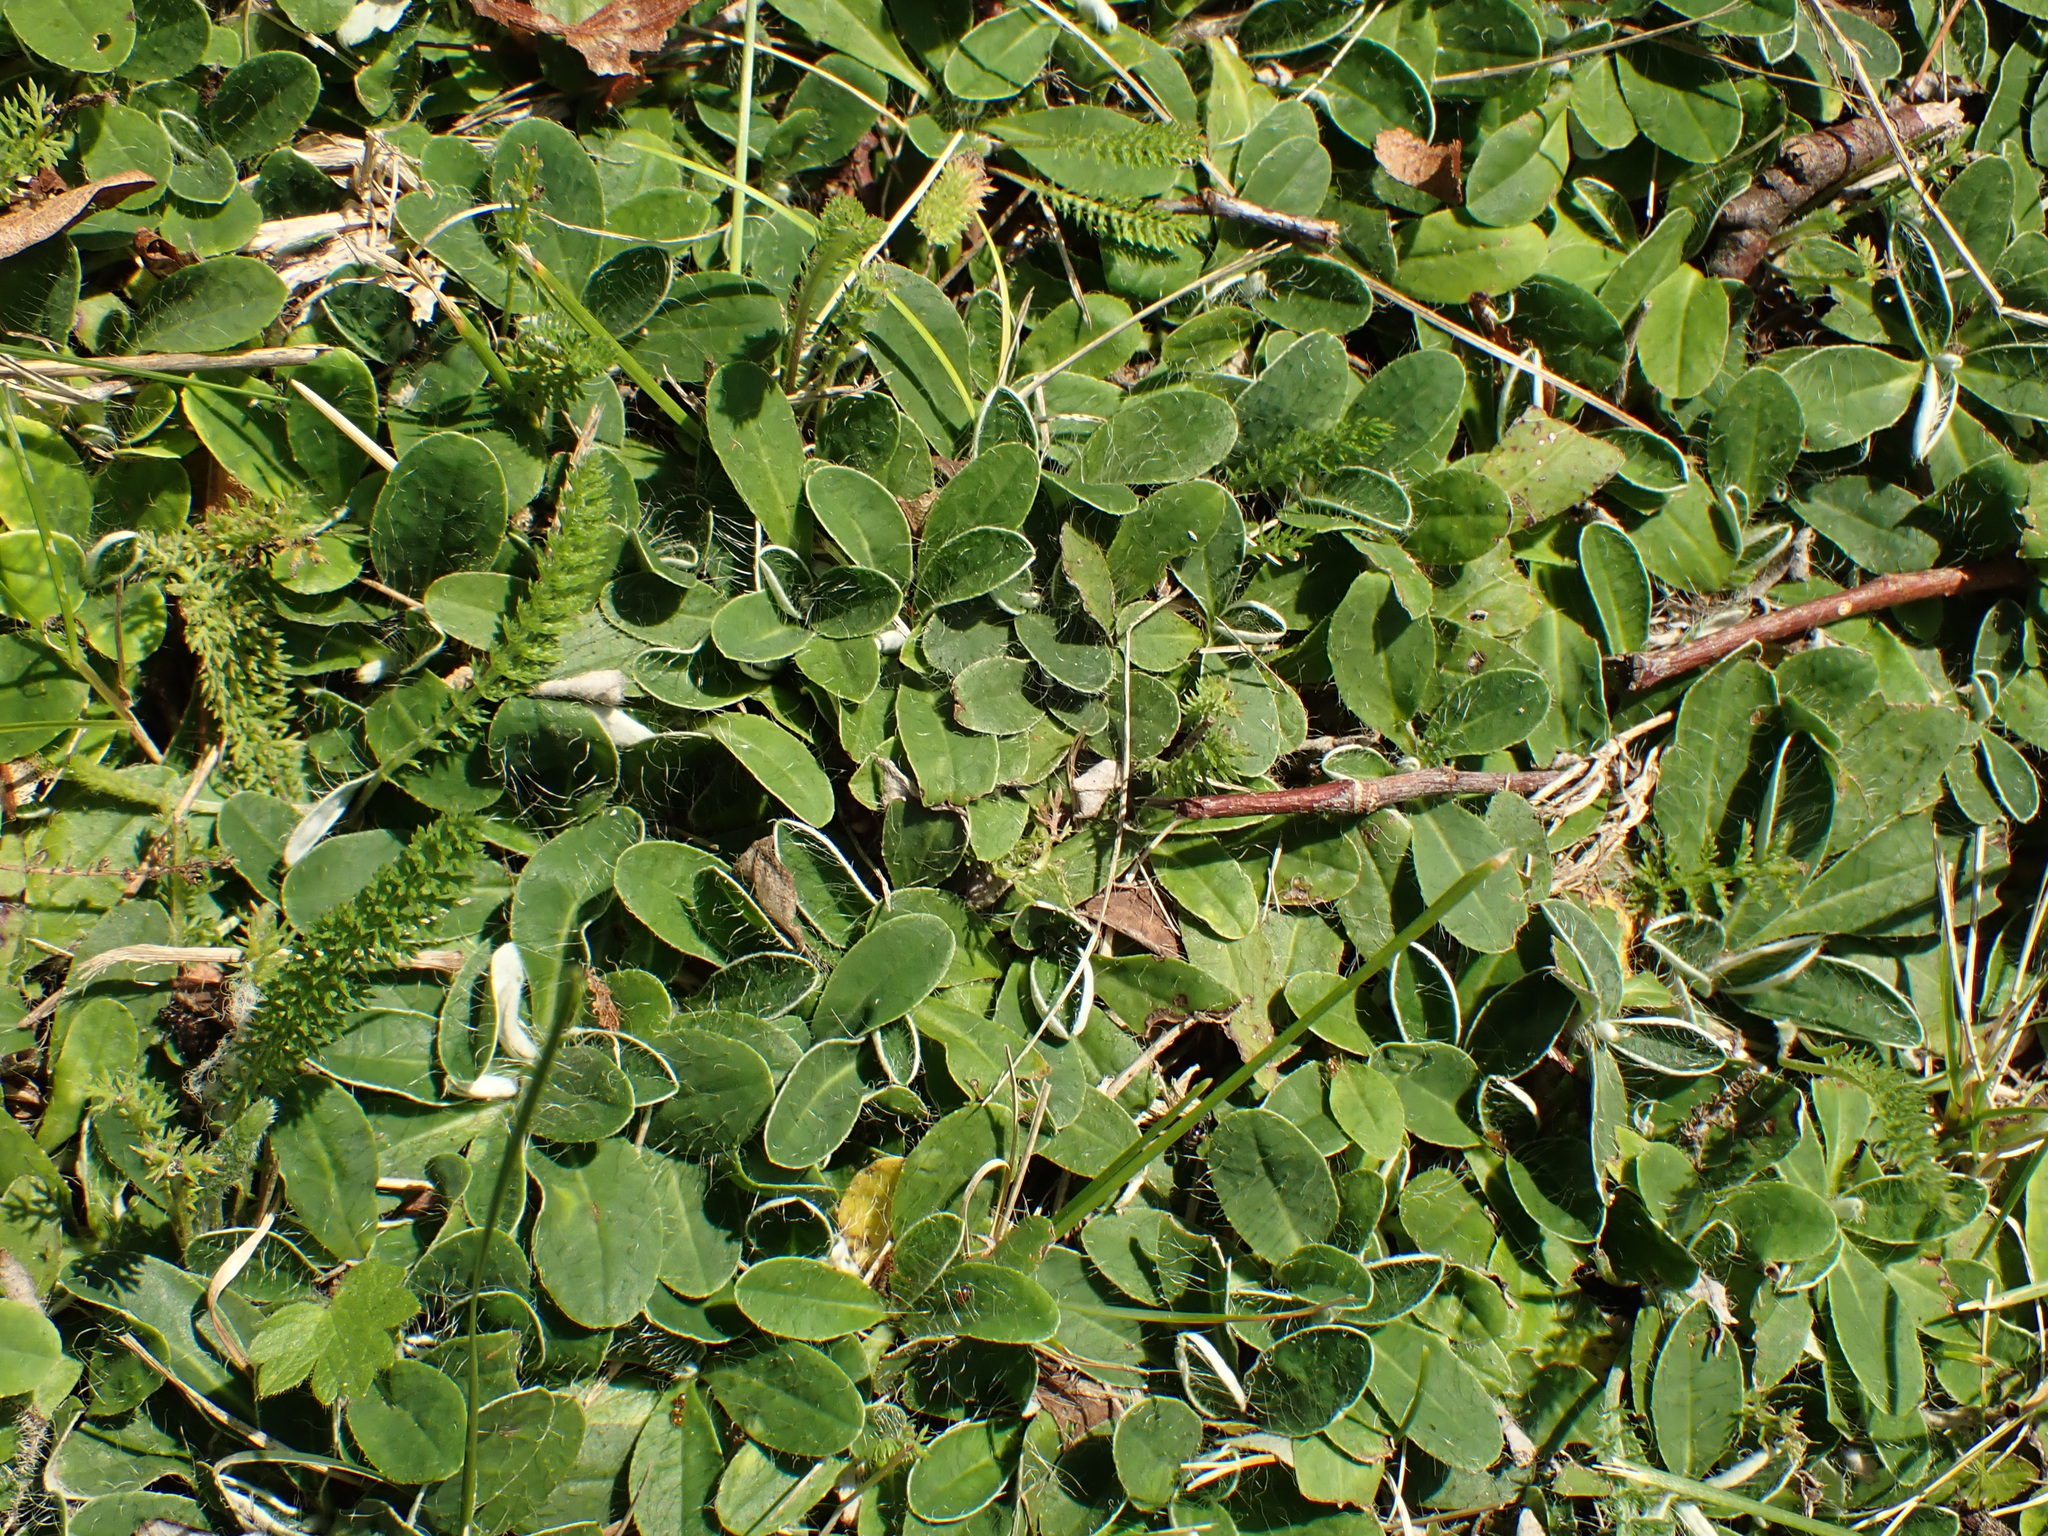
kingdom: Plantae
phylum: Tracheophyta
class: Magnoliopsida
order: Asterales
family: Asteraceae
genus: Pilosella
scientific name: Pilosella officinarum
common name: Mouse-ear hawkweed
